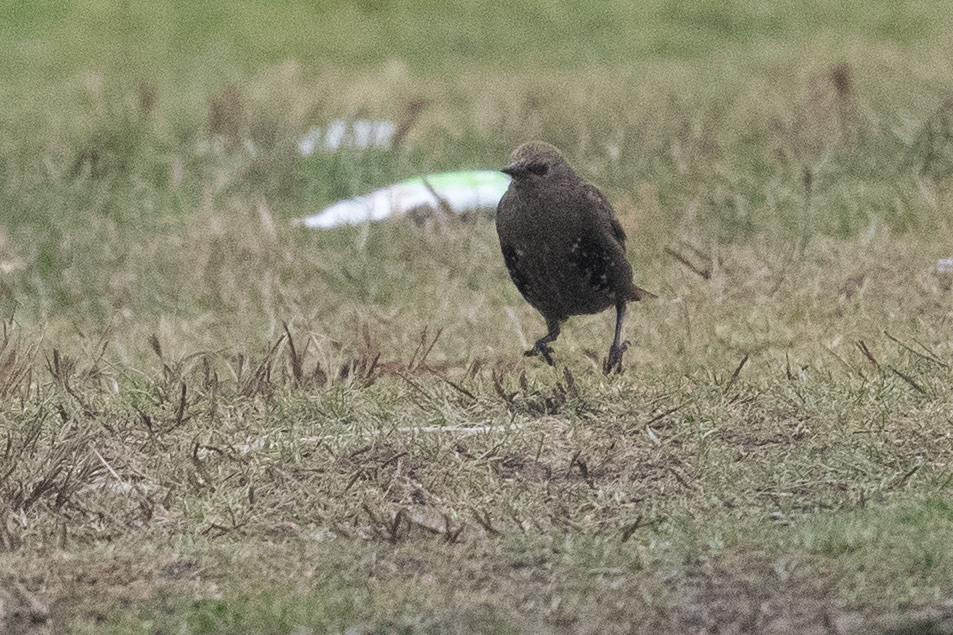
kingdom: Animalia
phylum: Chordata
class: Aves
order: Passeriformes
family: Sturnidae
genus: Sturnus
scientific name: Sturnus vulgaris
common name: Common starling
